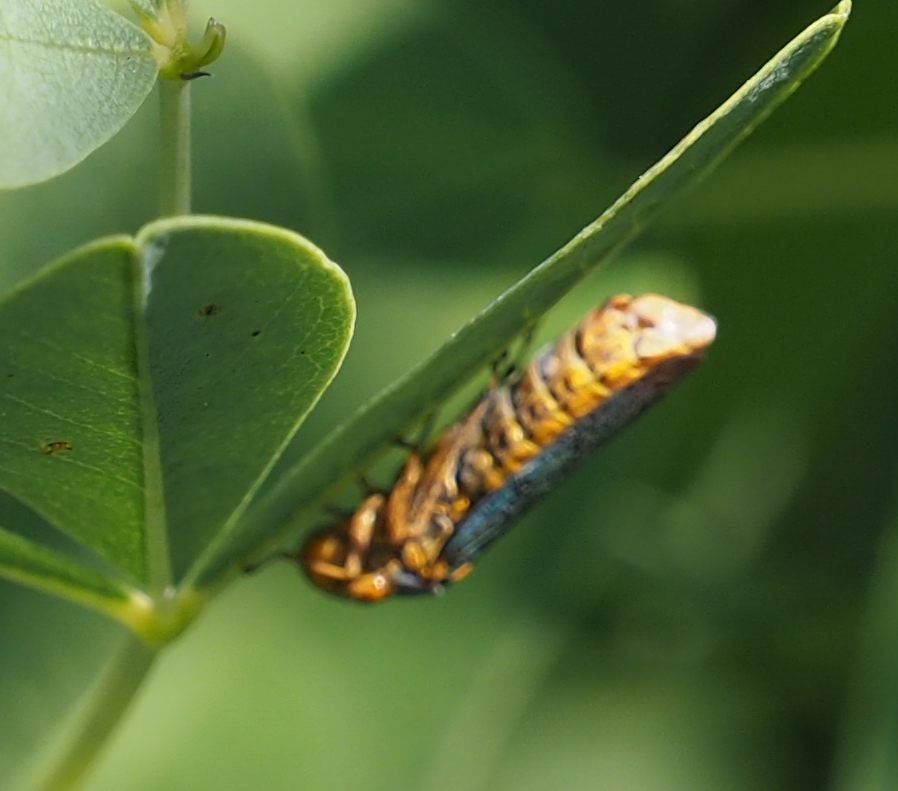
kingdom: Animalia
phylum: Arthropoda
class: Insecta
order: Hemiptera
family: Cicadellidae
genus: Oncometopia
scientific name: Oncometopia orbona
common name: Broad-headed sharpshooter
